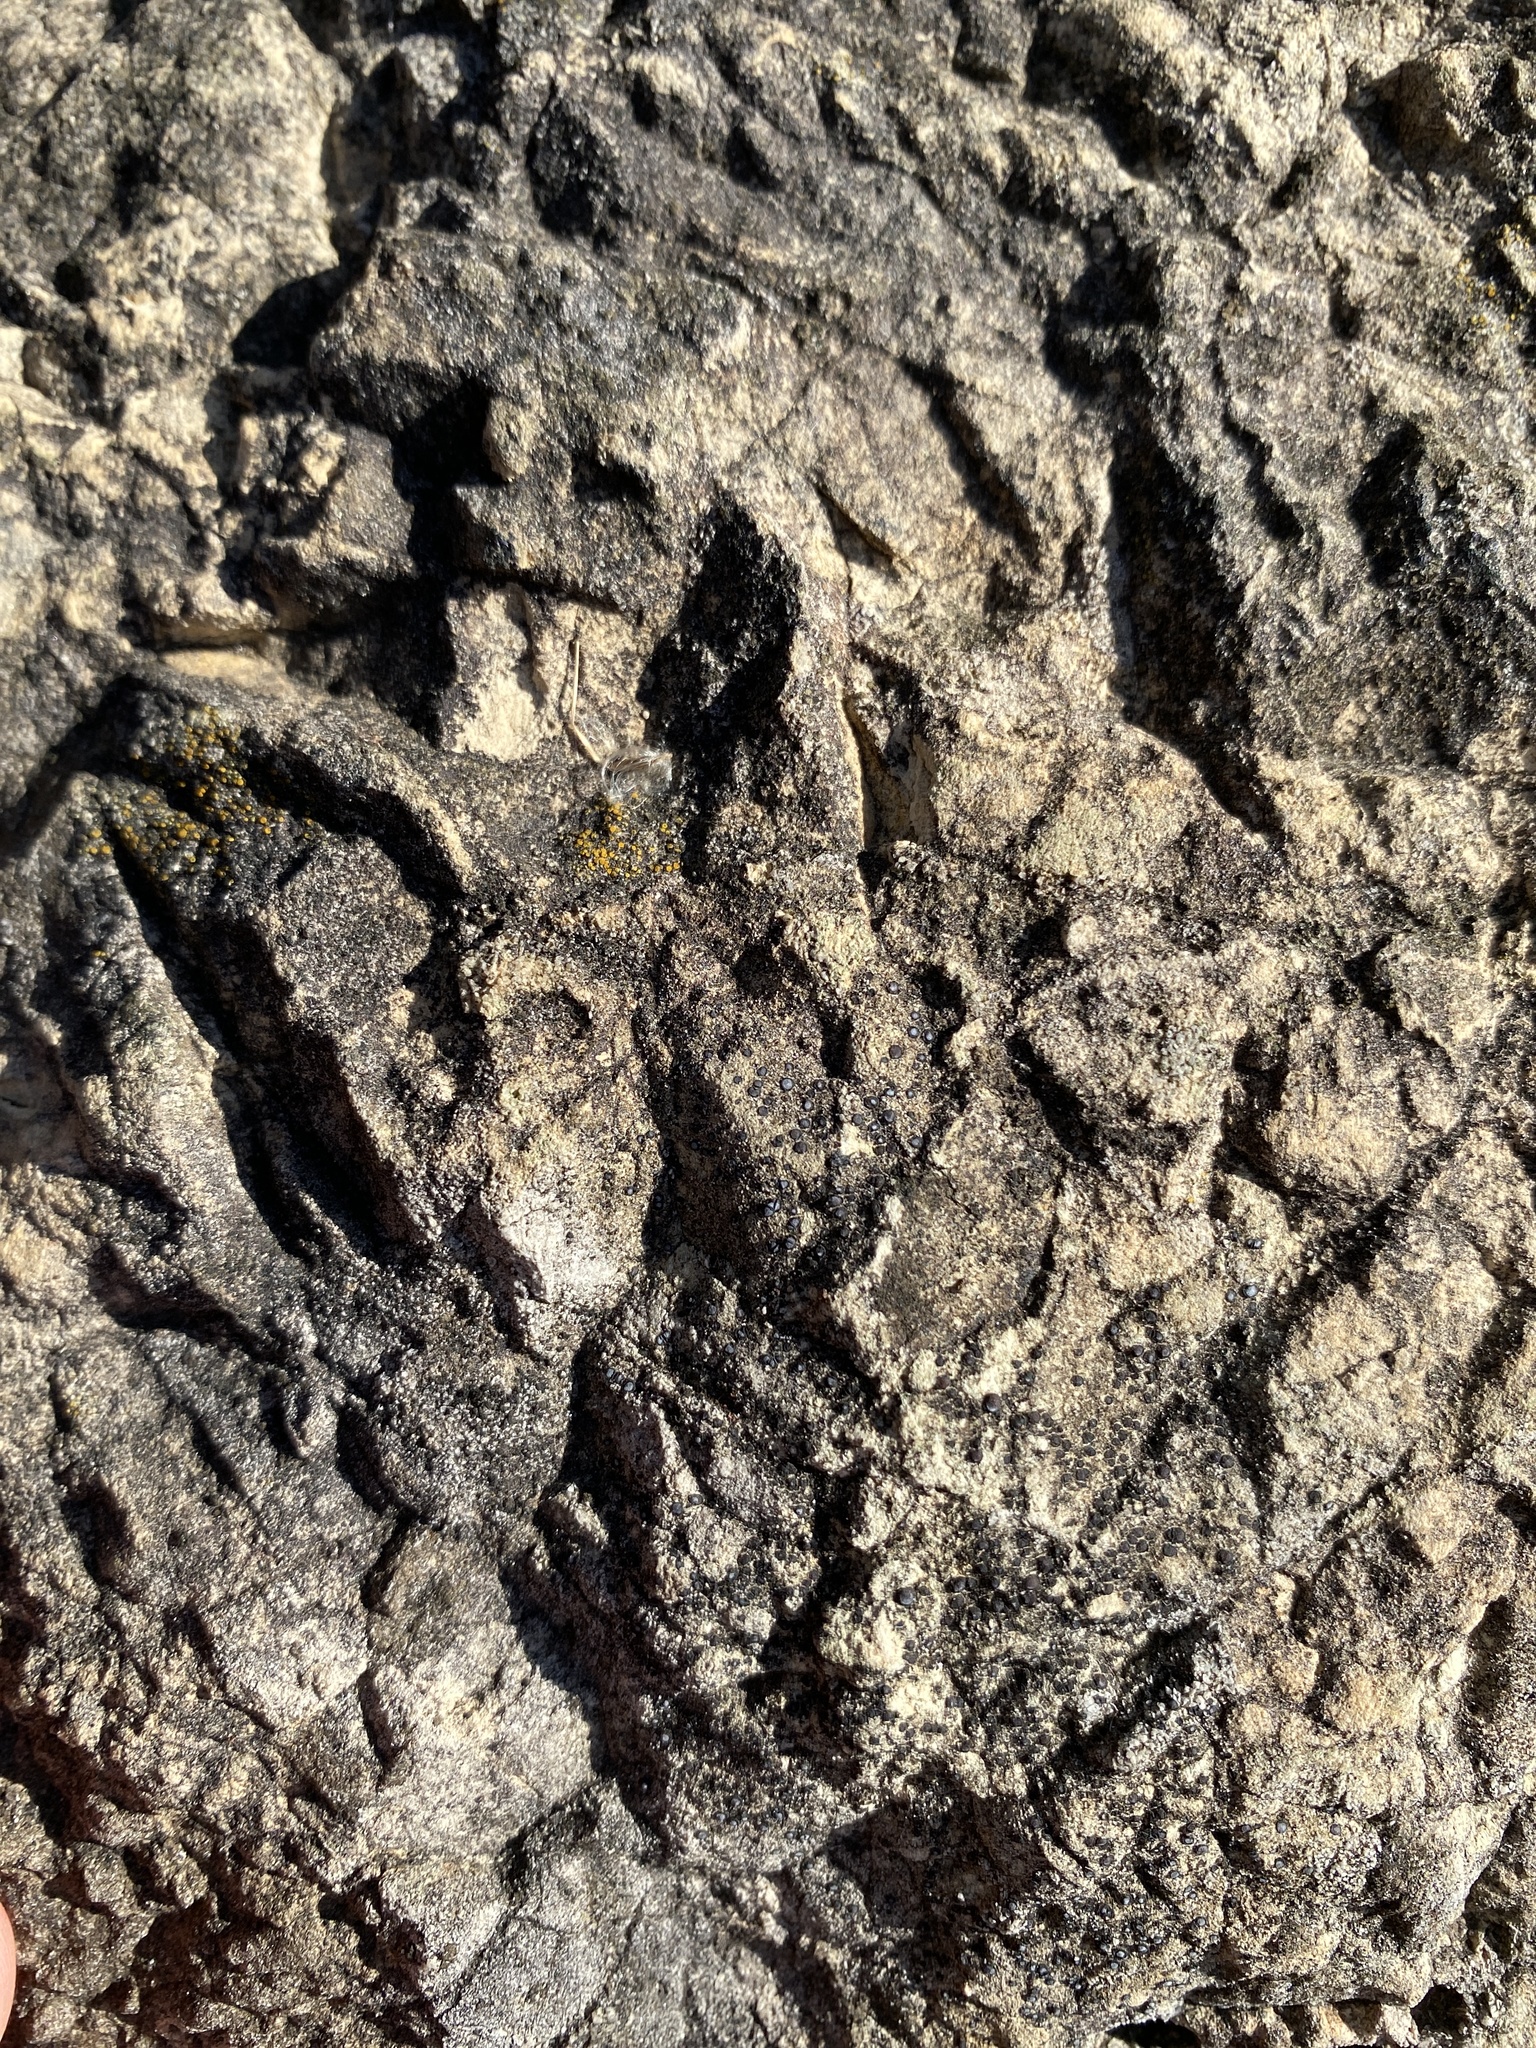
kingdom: Fungi
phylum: Ascomycota
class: Lecanoromycetes
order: Acarosporales
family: Acarosporaceae
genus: Sarcogyne
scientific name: Sarcogyne regularis
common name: Frosted grain-spored lichen
